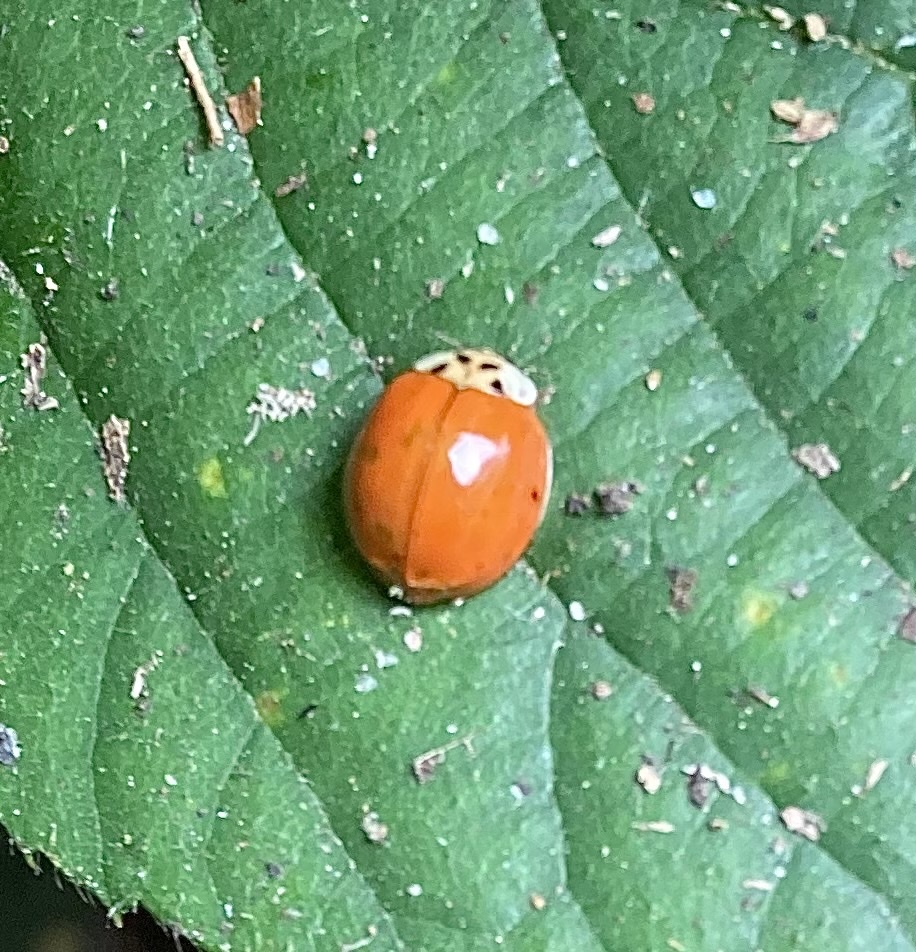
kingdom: Animalia
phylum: Arthropoda
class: Insecta
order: Coleoptera
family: Coccinellidae
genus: Harmonia
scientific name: Harmonia axyridis
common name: Harlequin ladybird
